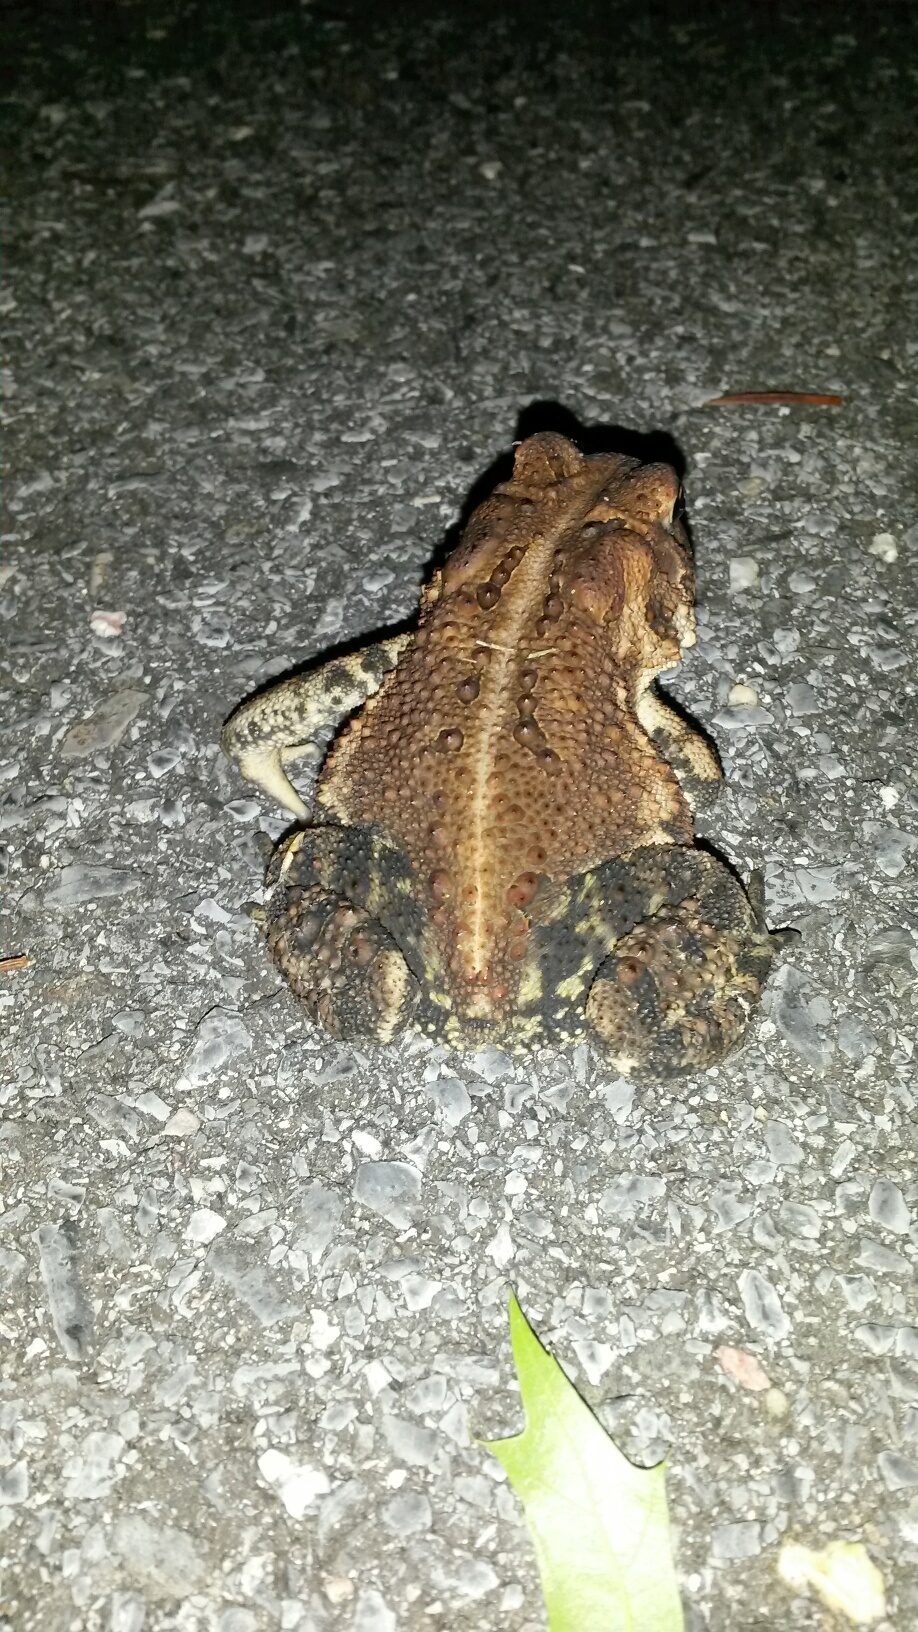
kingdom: Animalia
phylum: Chordata
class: Amphibia
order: Anura
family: Bufonidae
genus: Anaxyrus
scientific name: Anaxyrus americanus
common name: American toad
